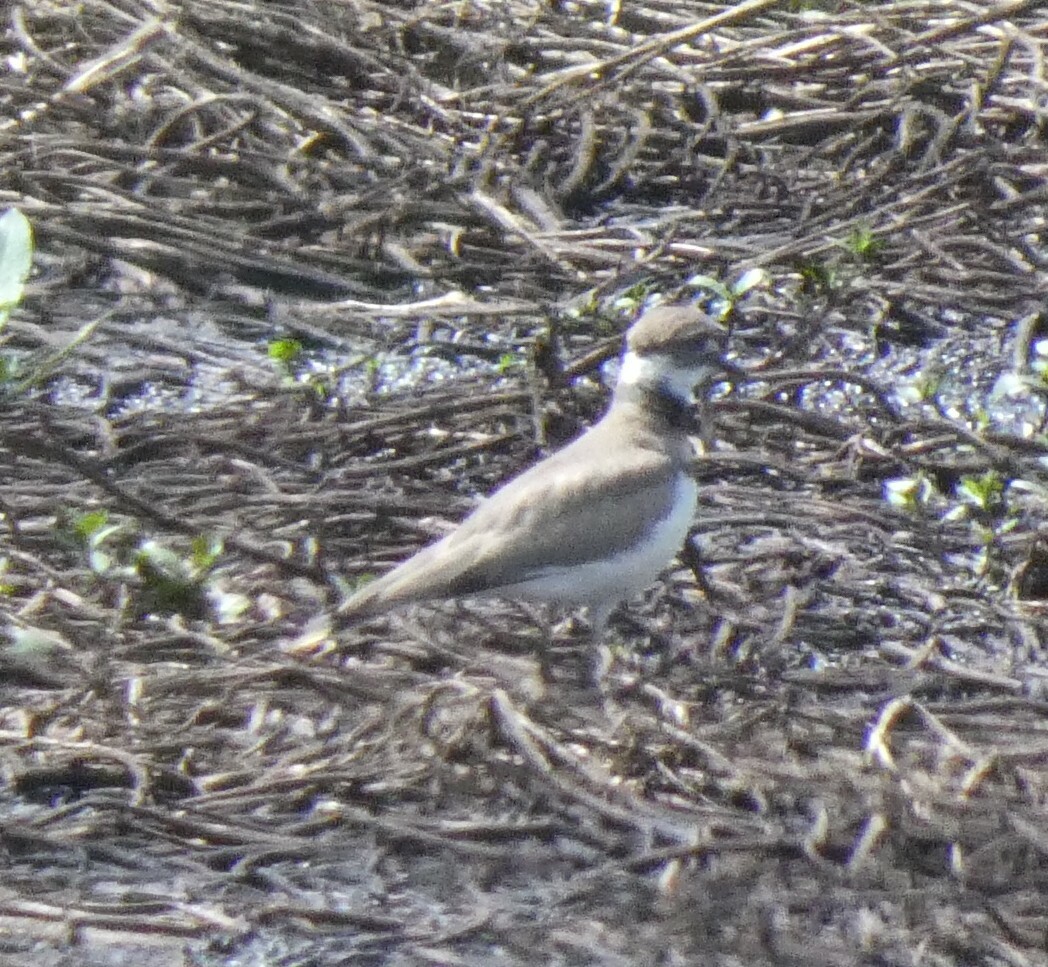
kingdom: Animalia
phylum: Chordata
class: Aves
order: Charadriiformes
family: Charadriidae
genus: Charadrius
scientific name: Charadrius vociferus
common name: Killdeer
